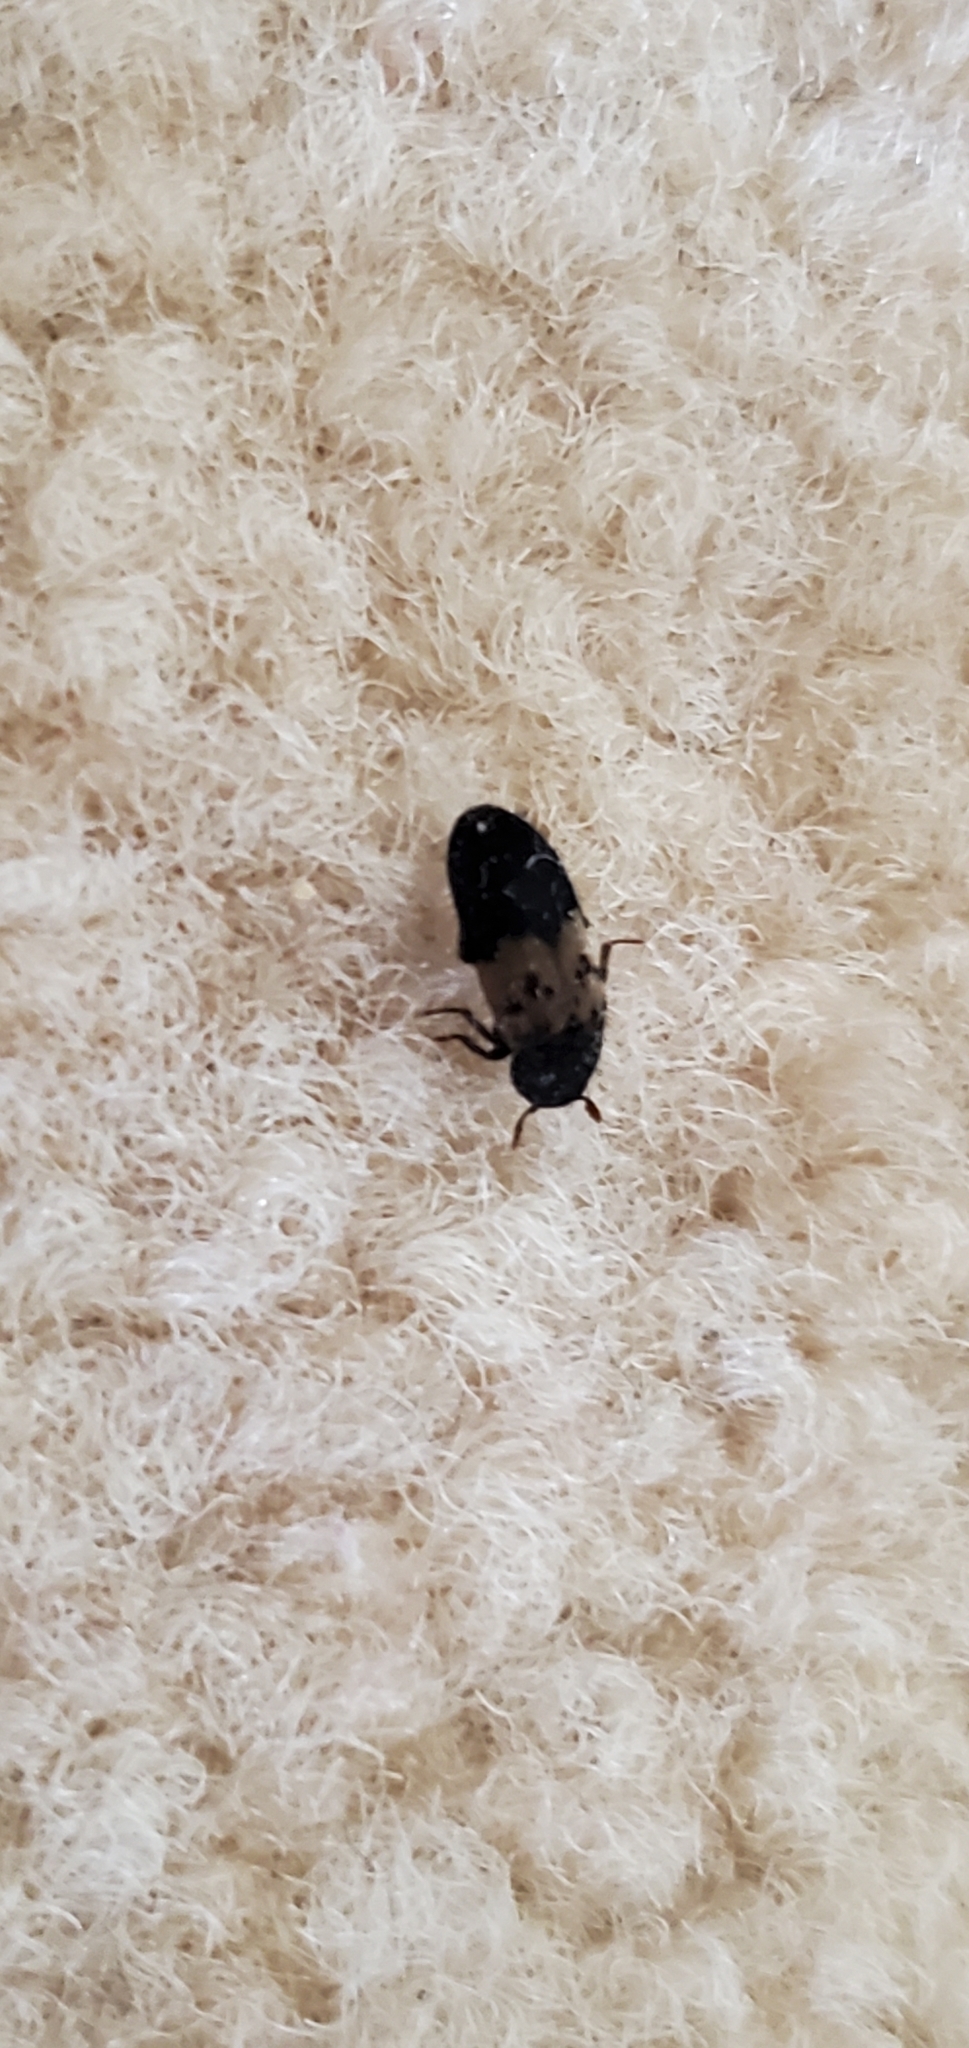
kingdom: Animalia
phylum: Arthropoda
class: Insecta
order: Coleoptera
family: Dermestidae
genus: Dermestes
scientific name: Dermestes lardarius
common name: Larder beetle
